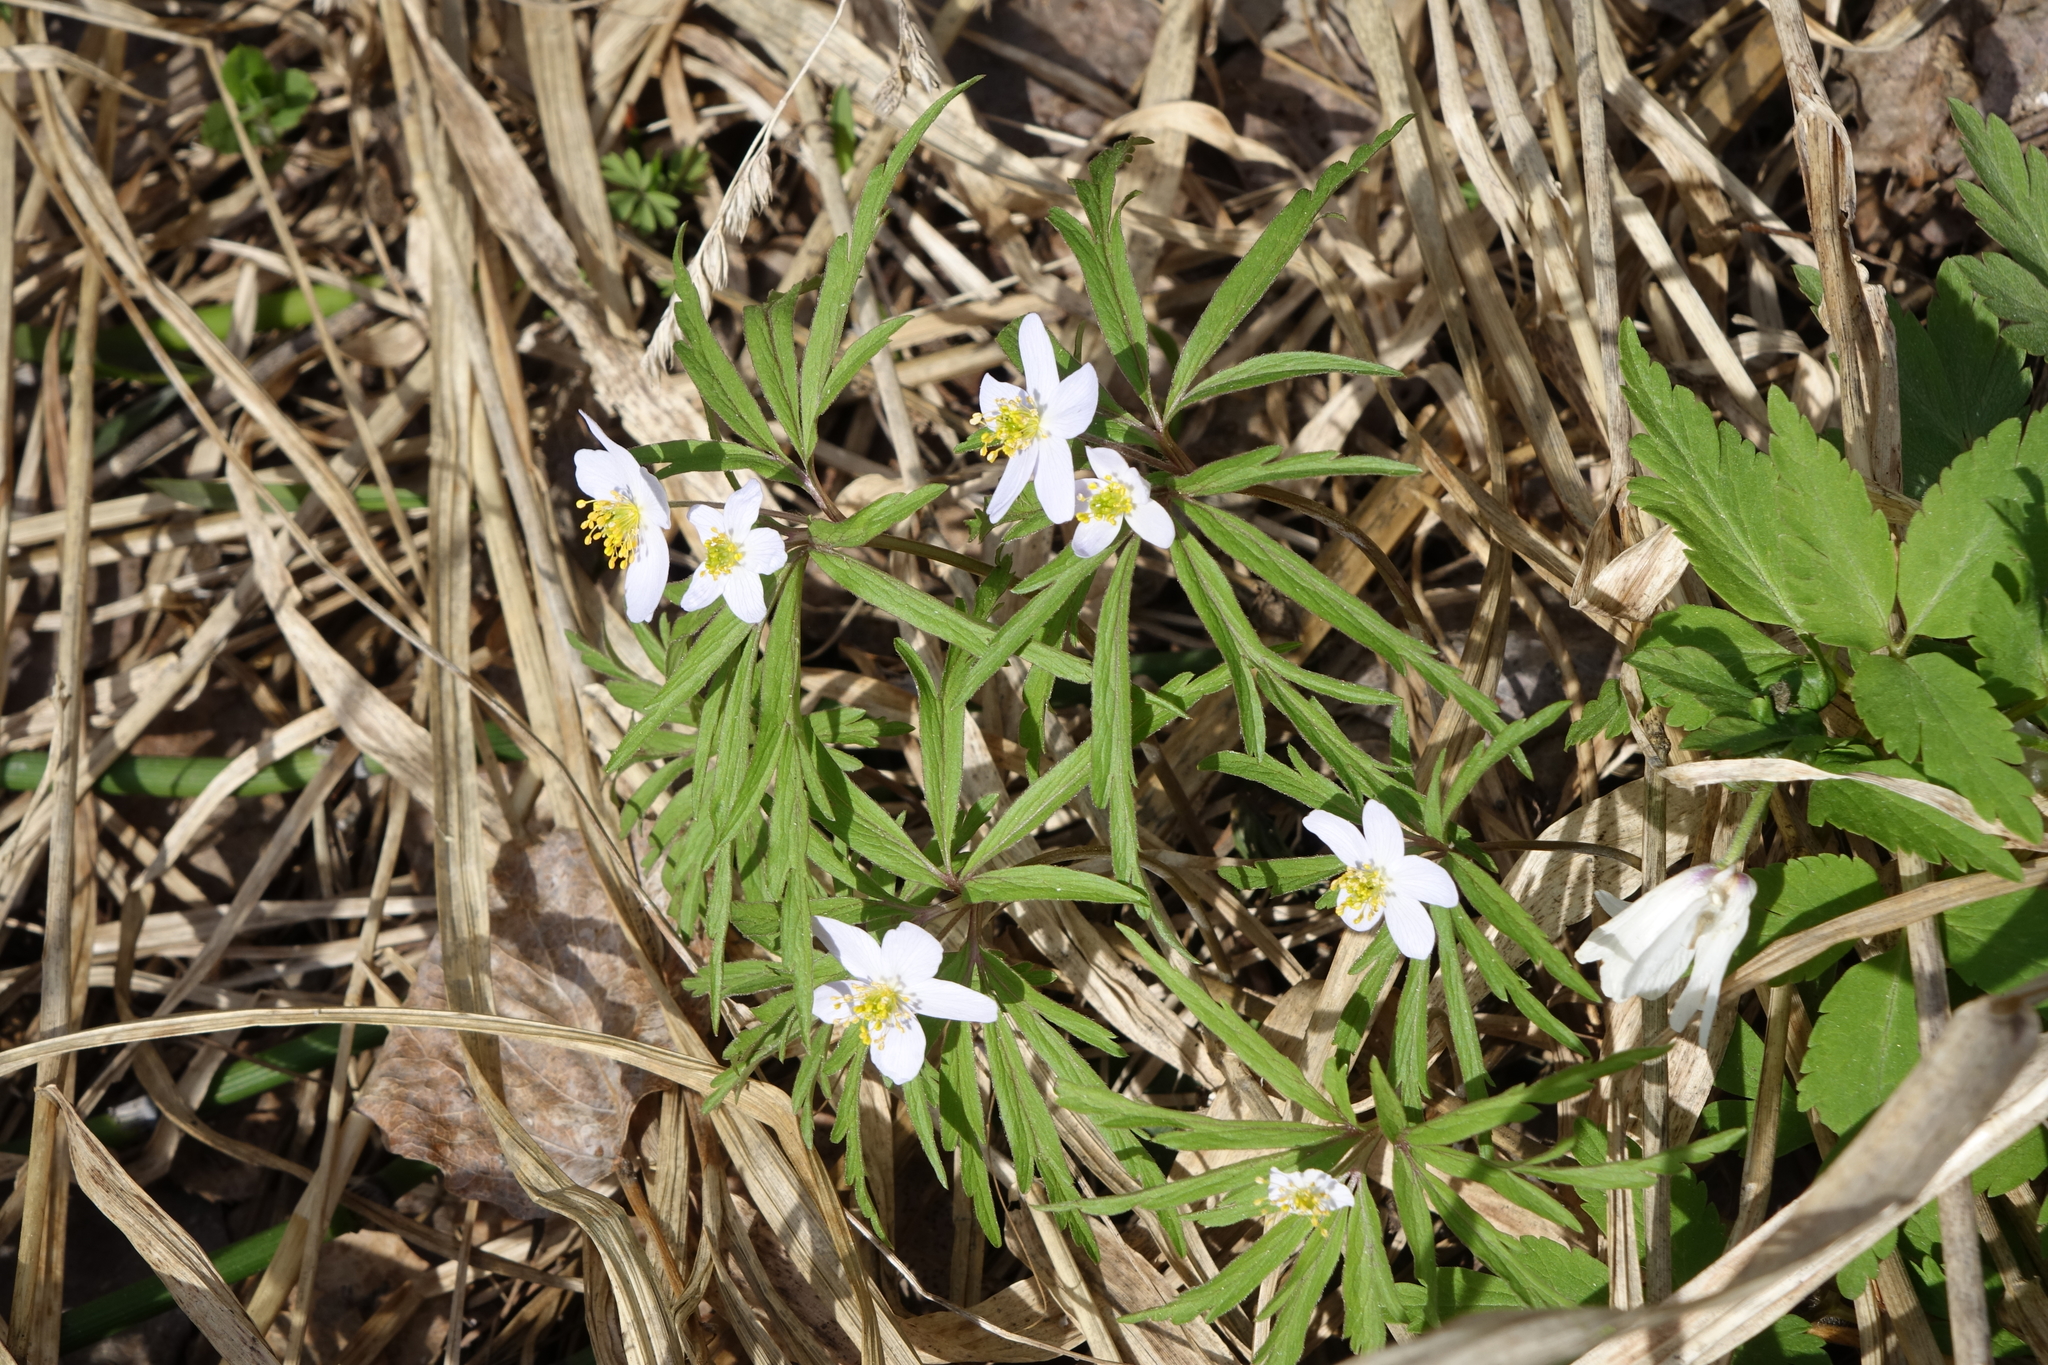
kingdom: Plantae
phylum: Tracheophyta
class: Magnoliopsida
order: Ranunculales
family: Ranunculaceae
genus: Anemone
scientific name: Anemone caerulea
